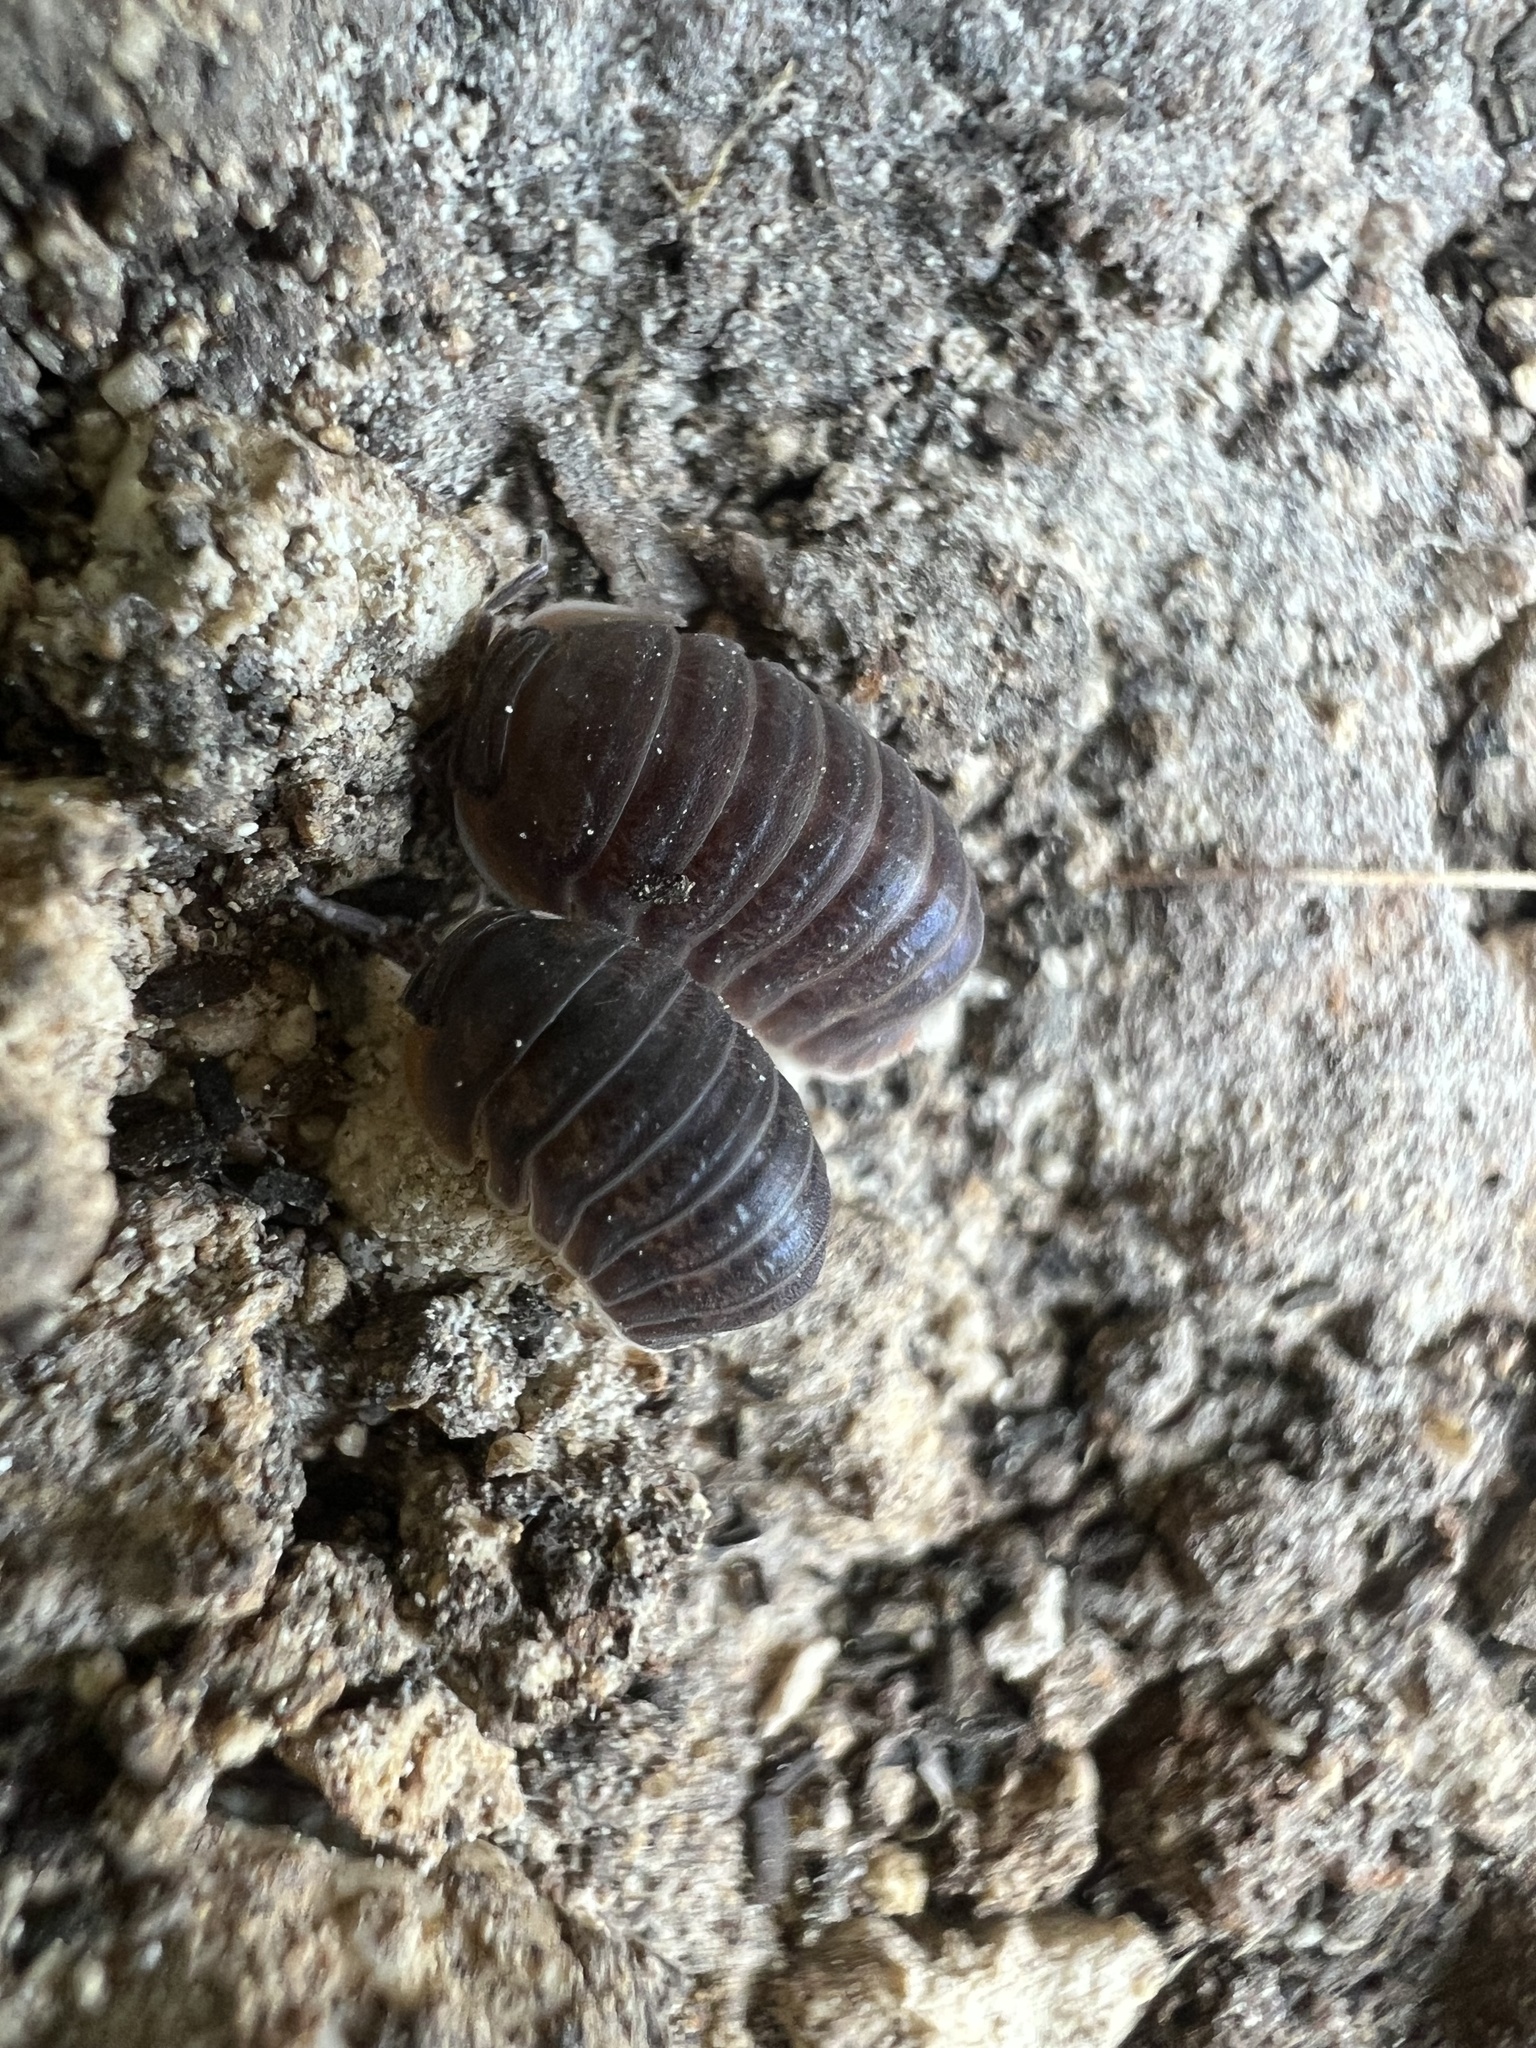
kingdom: Animalia
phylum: Arthropoda
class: Malacostraca
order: Isopoda
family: Armadillidae
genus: Cubaris
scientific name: Cubaris murina
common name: Pillbug
